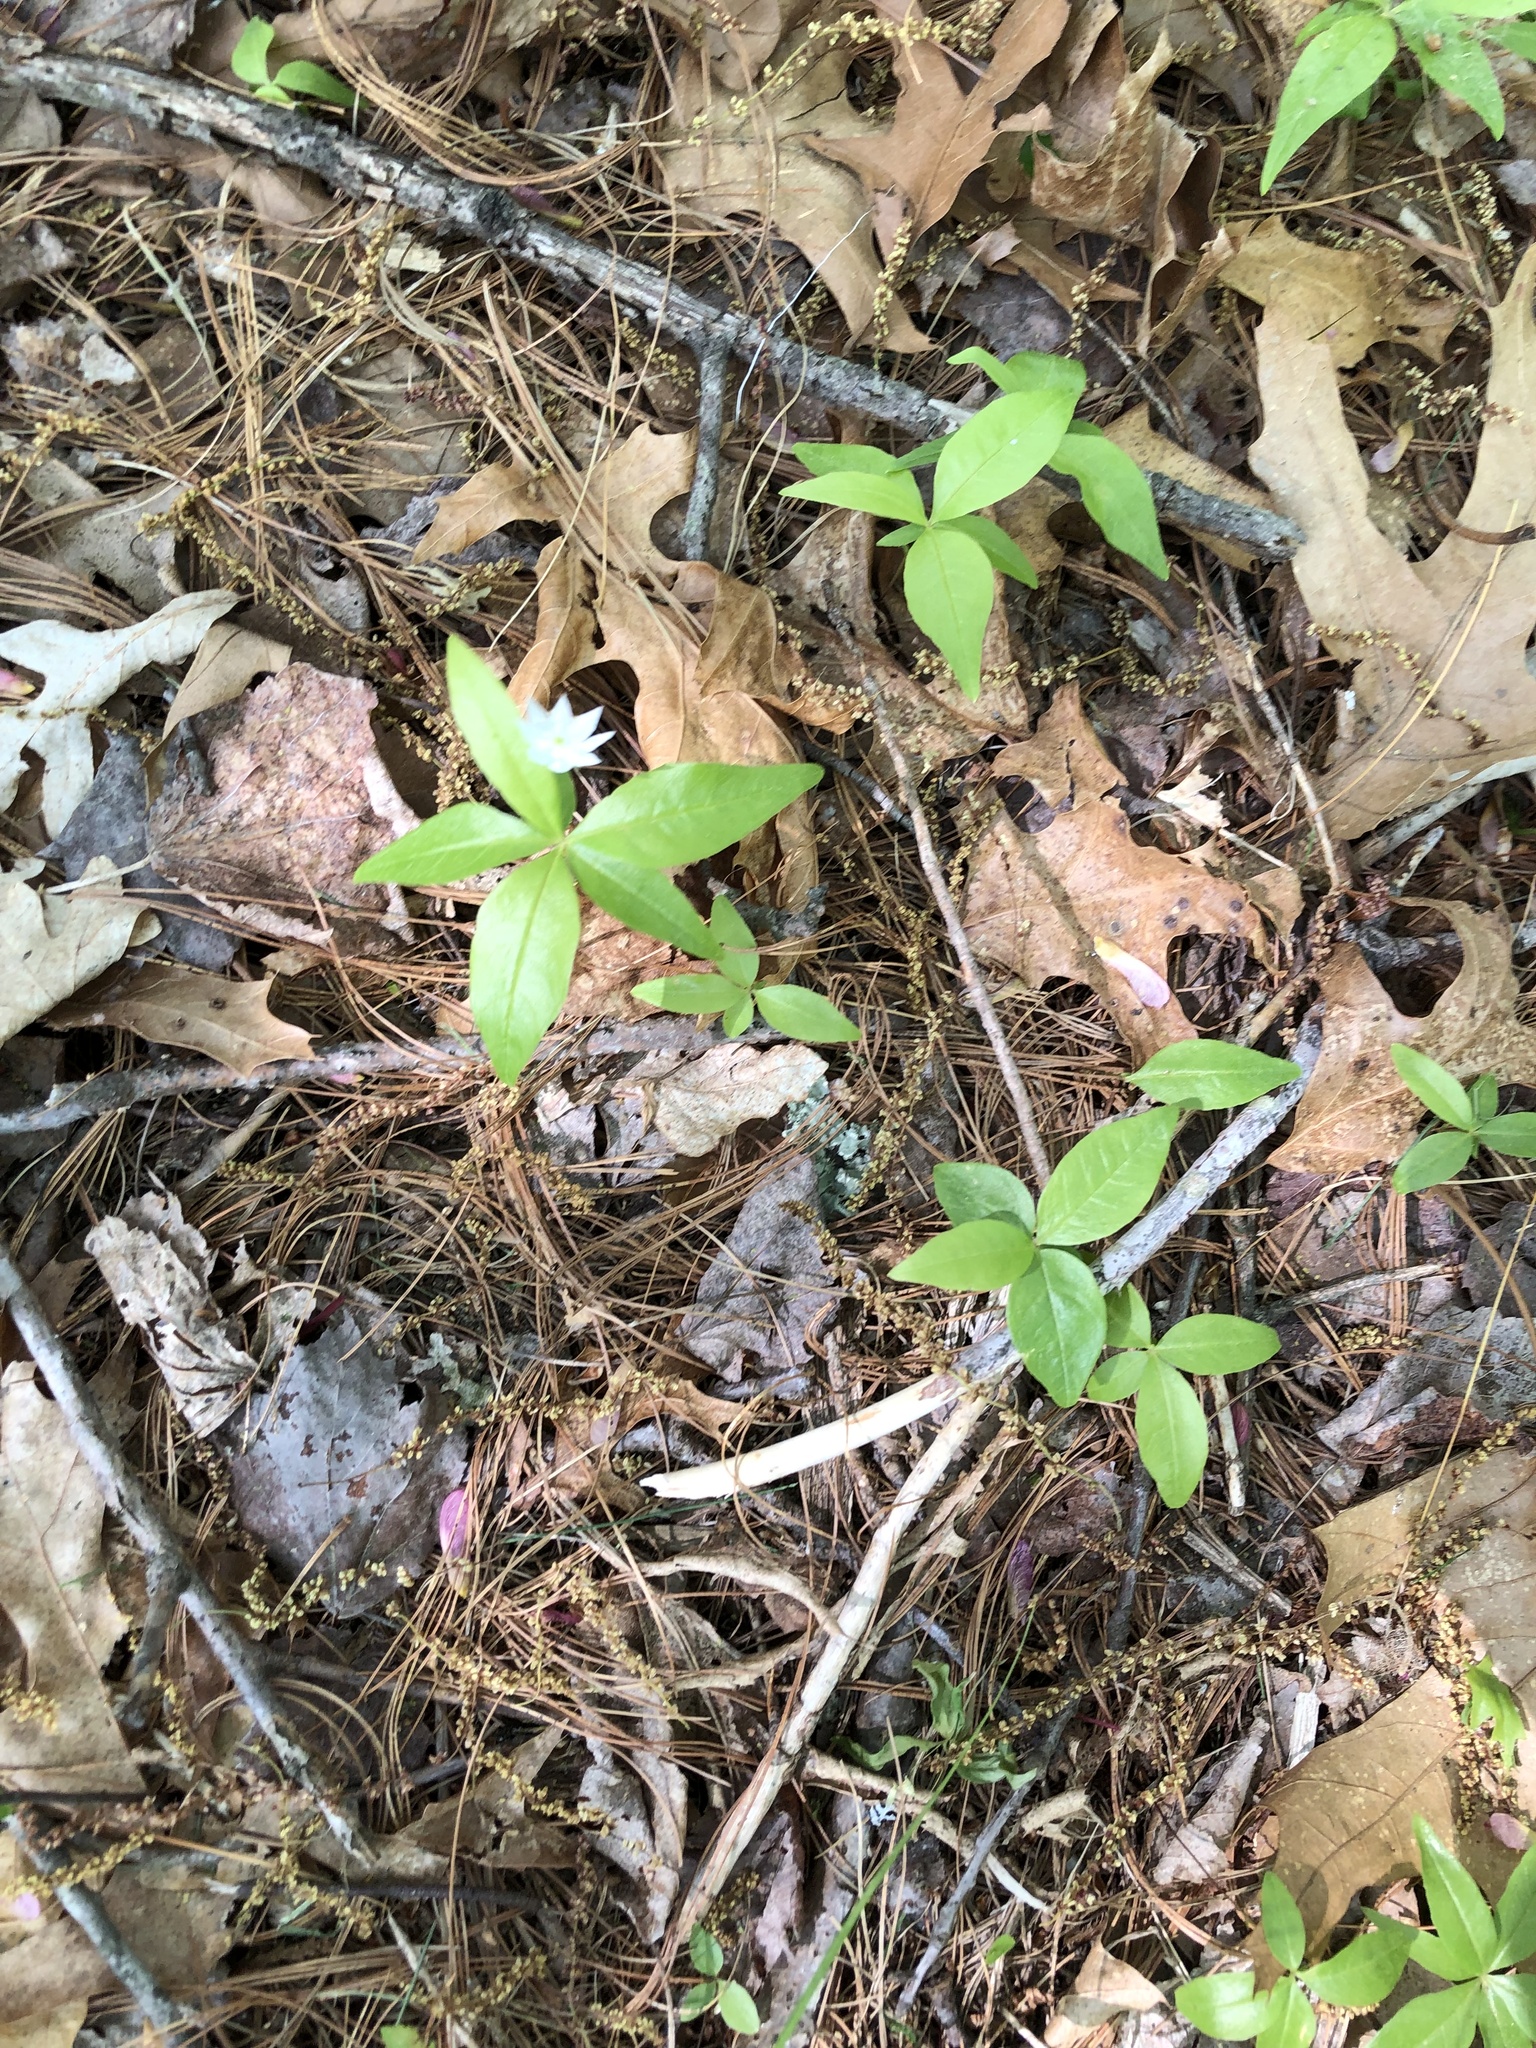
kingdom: Plantae
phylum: Tracheophyta
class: Magnoliopsida
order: Ericales
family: Primulaceae
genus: Lysimachia
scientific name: Lysimachia borealis
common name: American starflower
